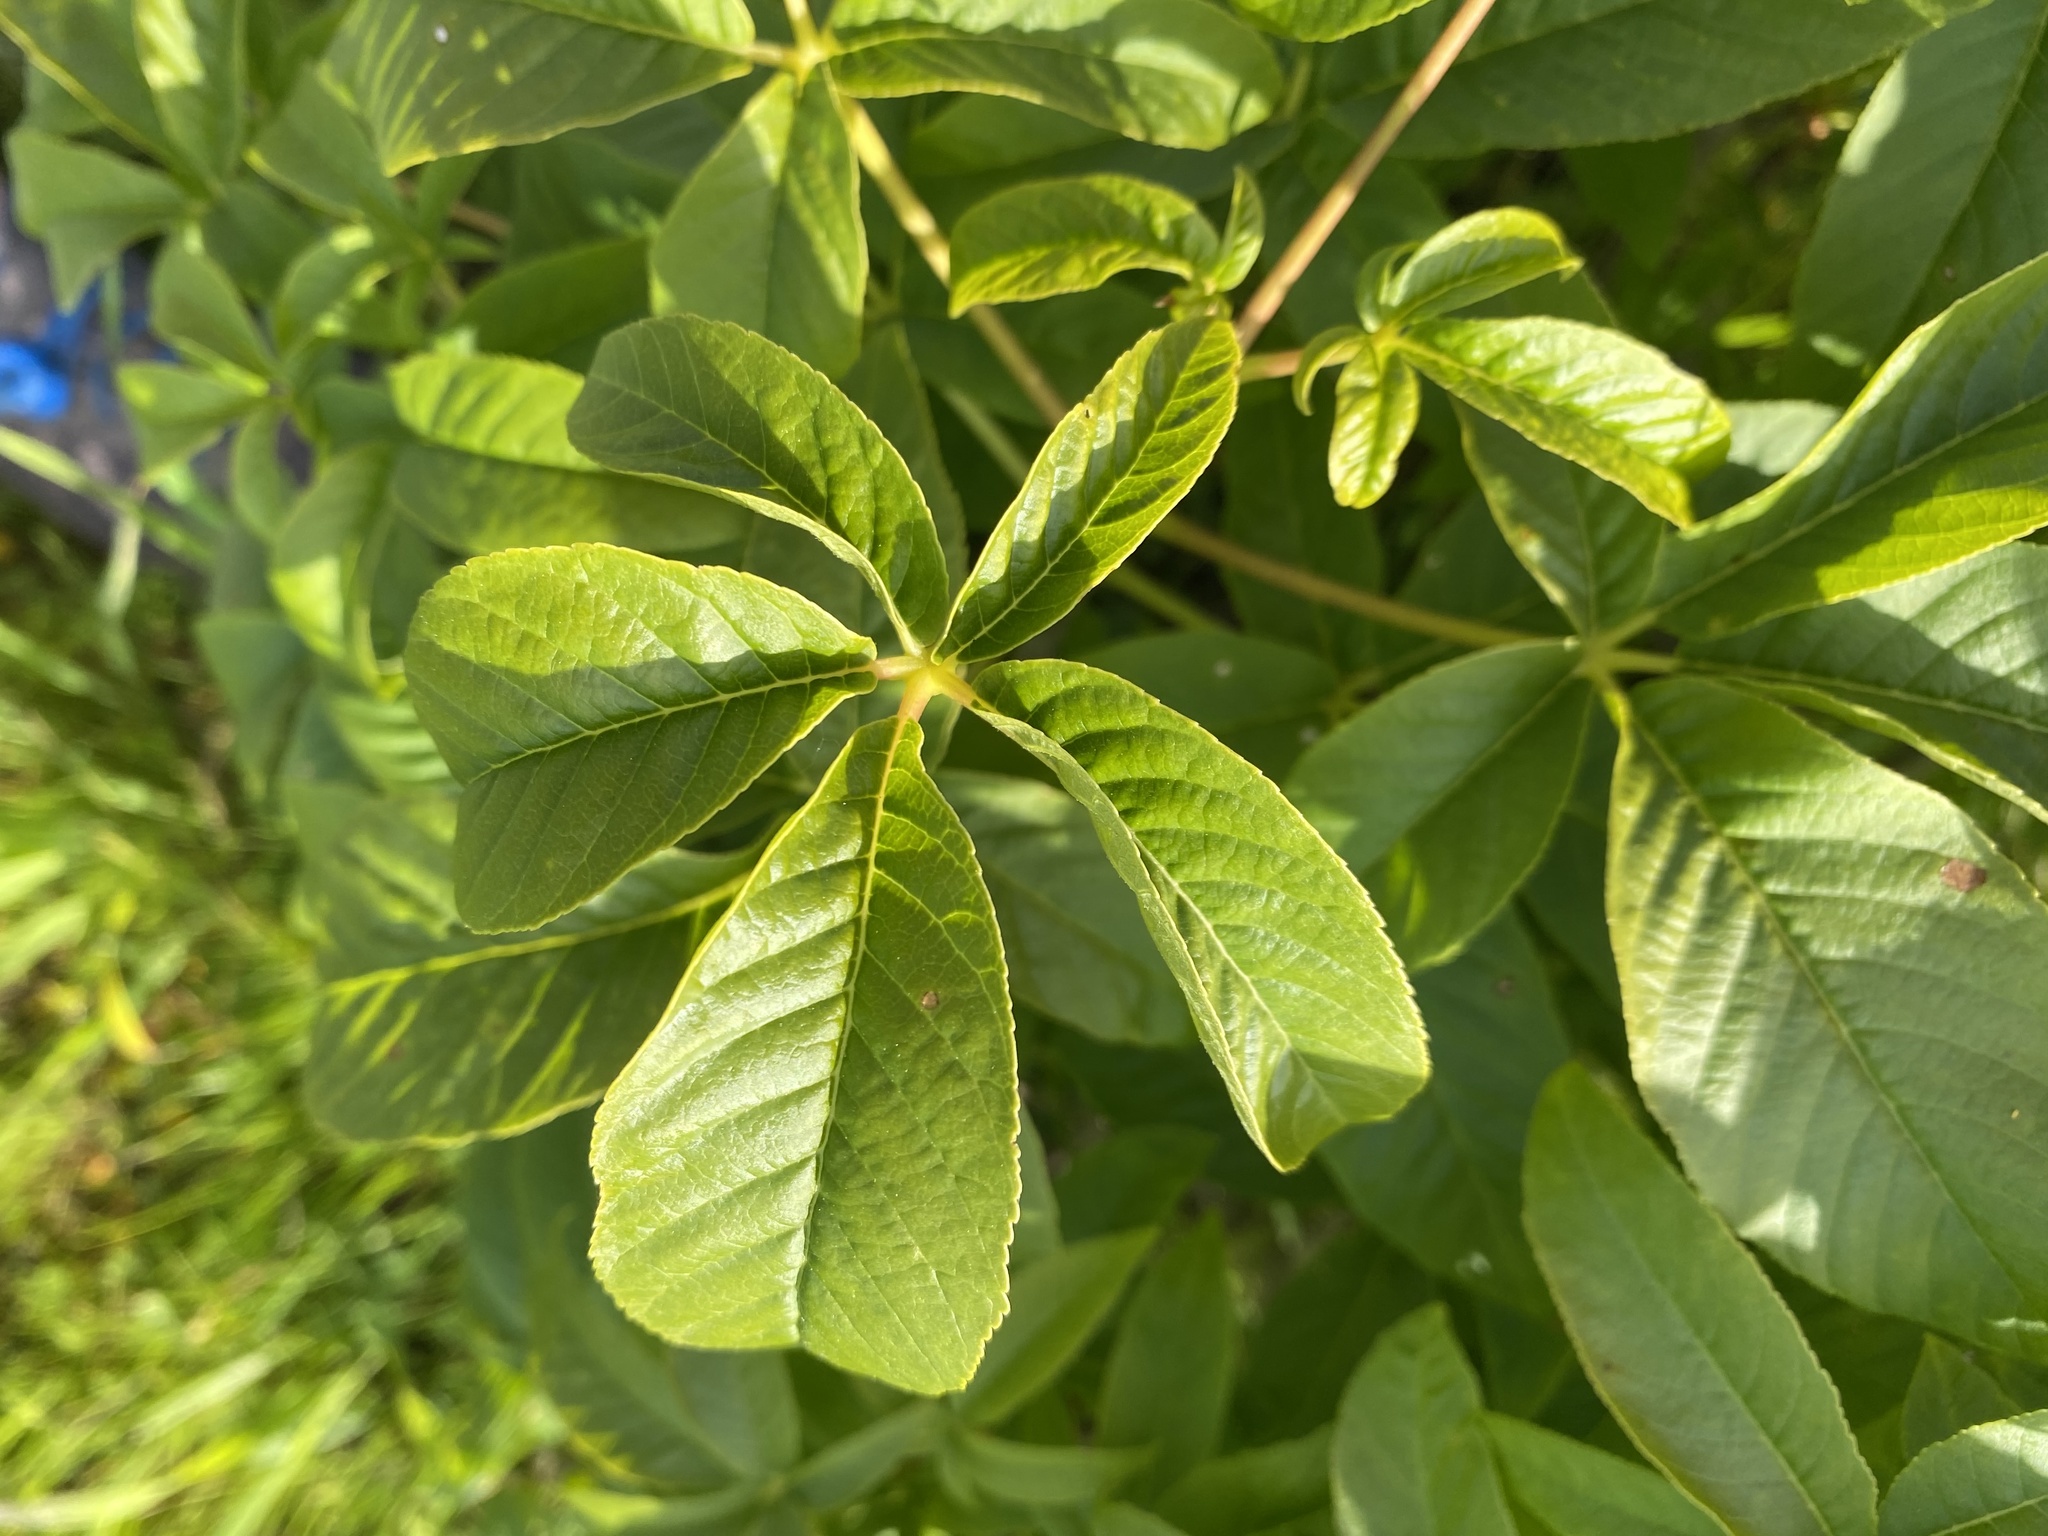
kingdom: Plantae
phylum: Tracheophyta
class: Magnoliopsida
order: Sapindales
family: Sapindaceae
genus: Aesculus
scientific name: Aesculus californica
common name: California buckeye
